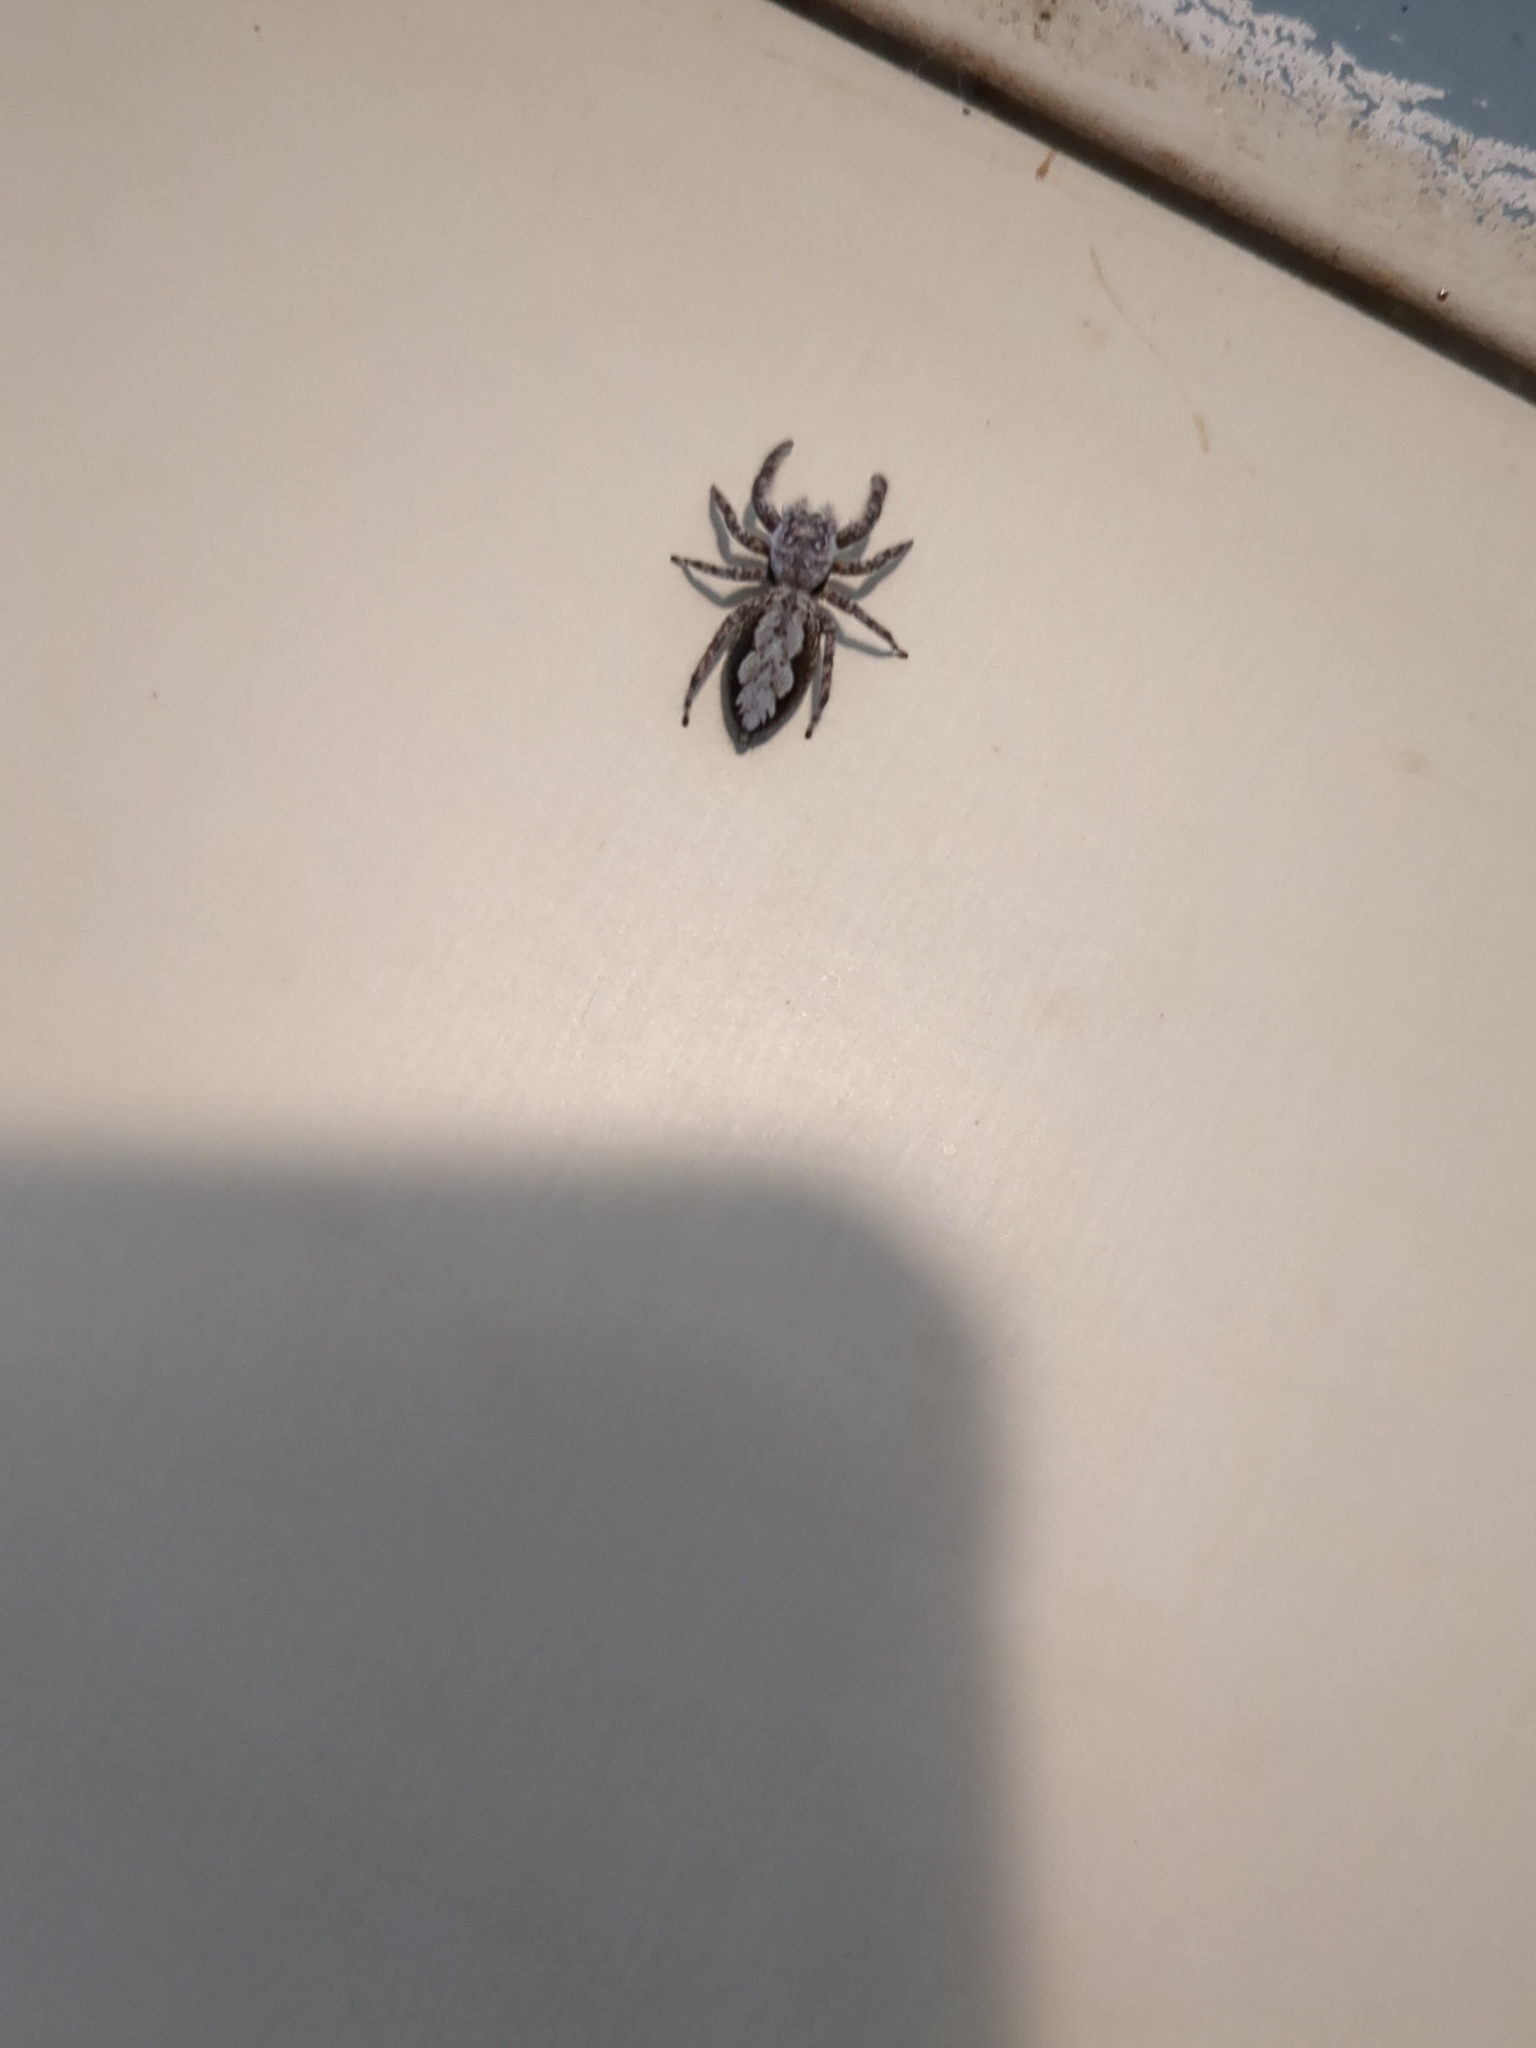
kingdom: Animalia
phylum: Arthropoda
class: Arachnida
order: Araneae
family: Salticidae
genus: Platycryptus
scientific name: Platycryptus undatus
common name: Tan jumping spider
